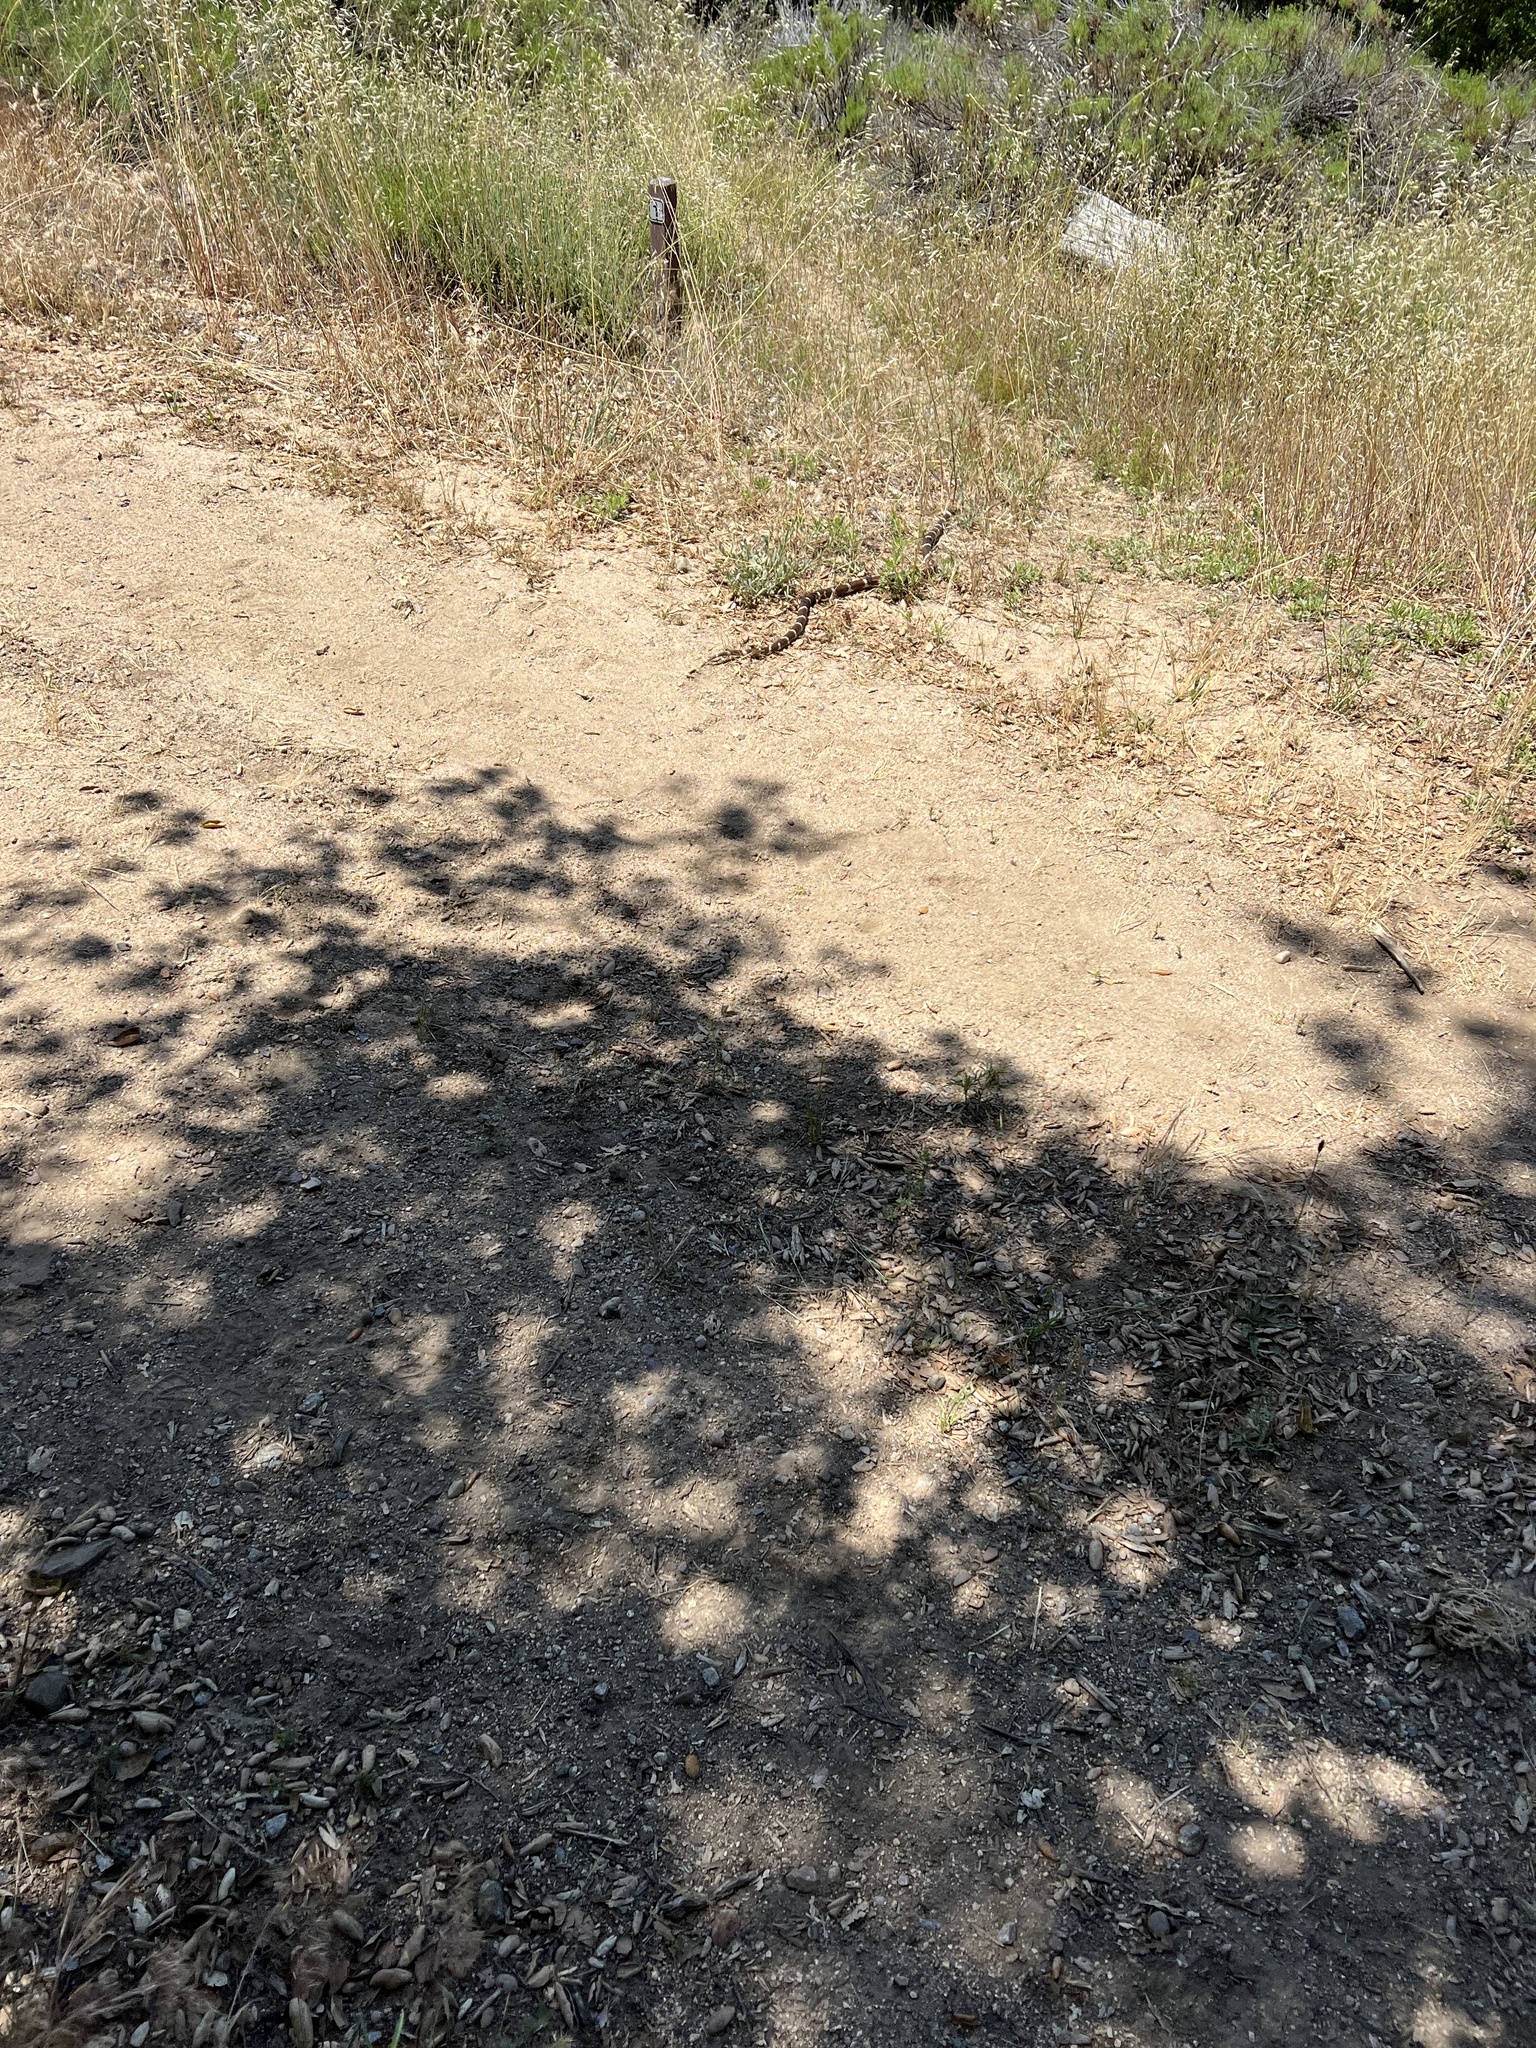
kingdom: Animalia
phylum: Chordata
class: Squamata
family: Colubridae
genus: Lampropeltis
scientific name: Lampropeltis californiae
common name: California kingsnake
